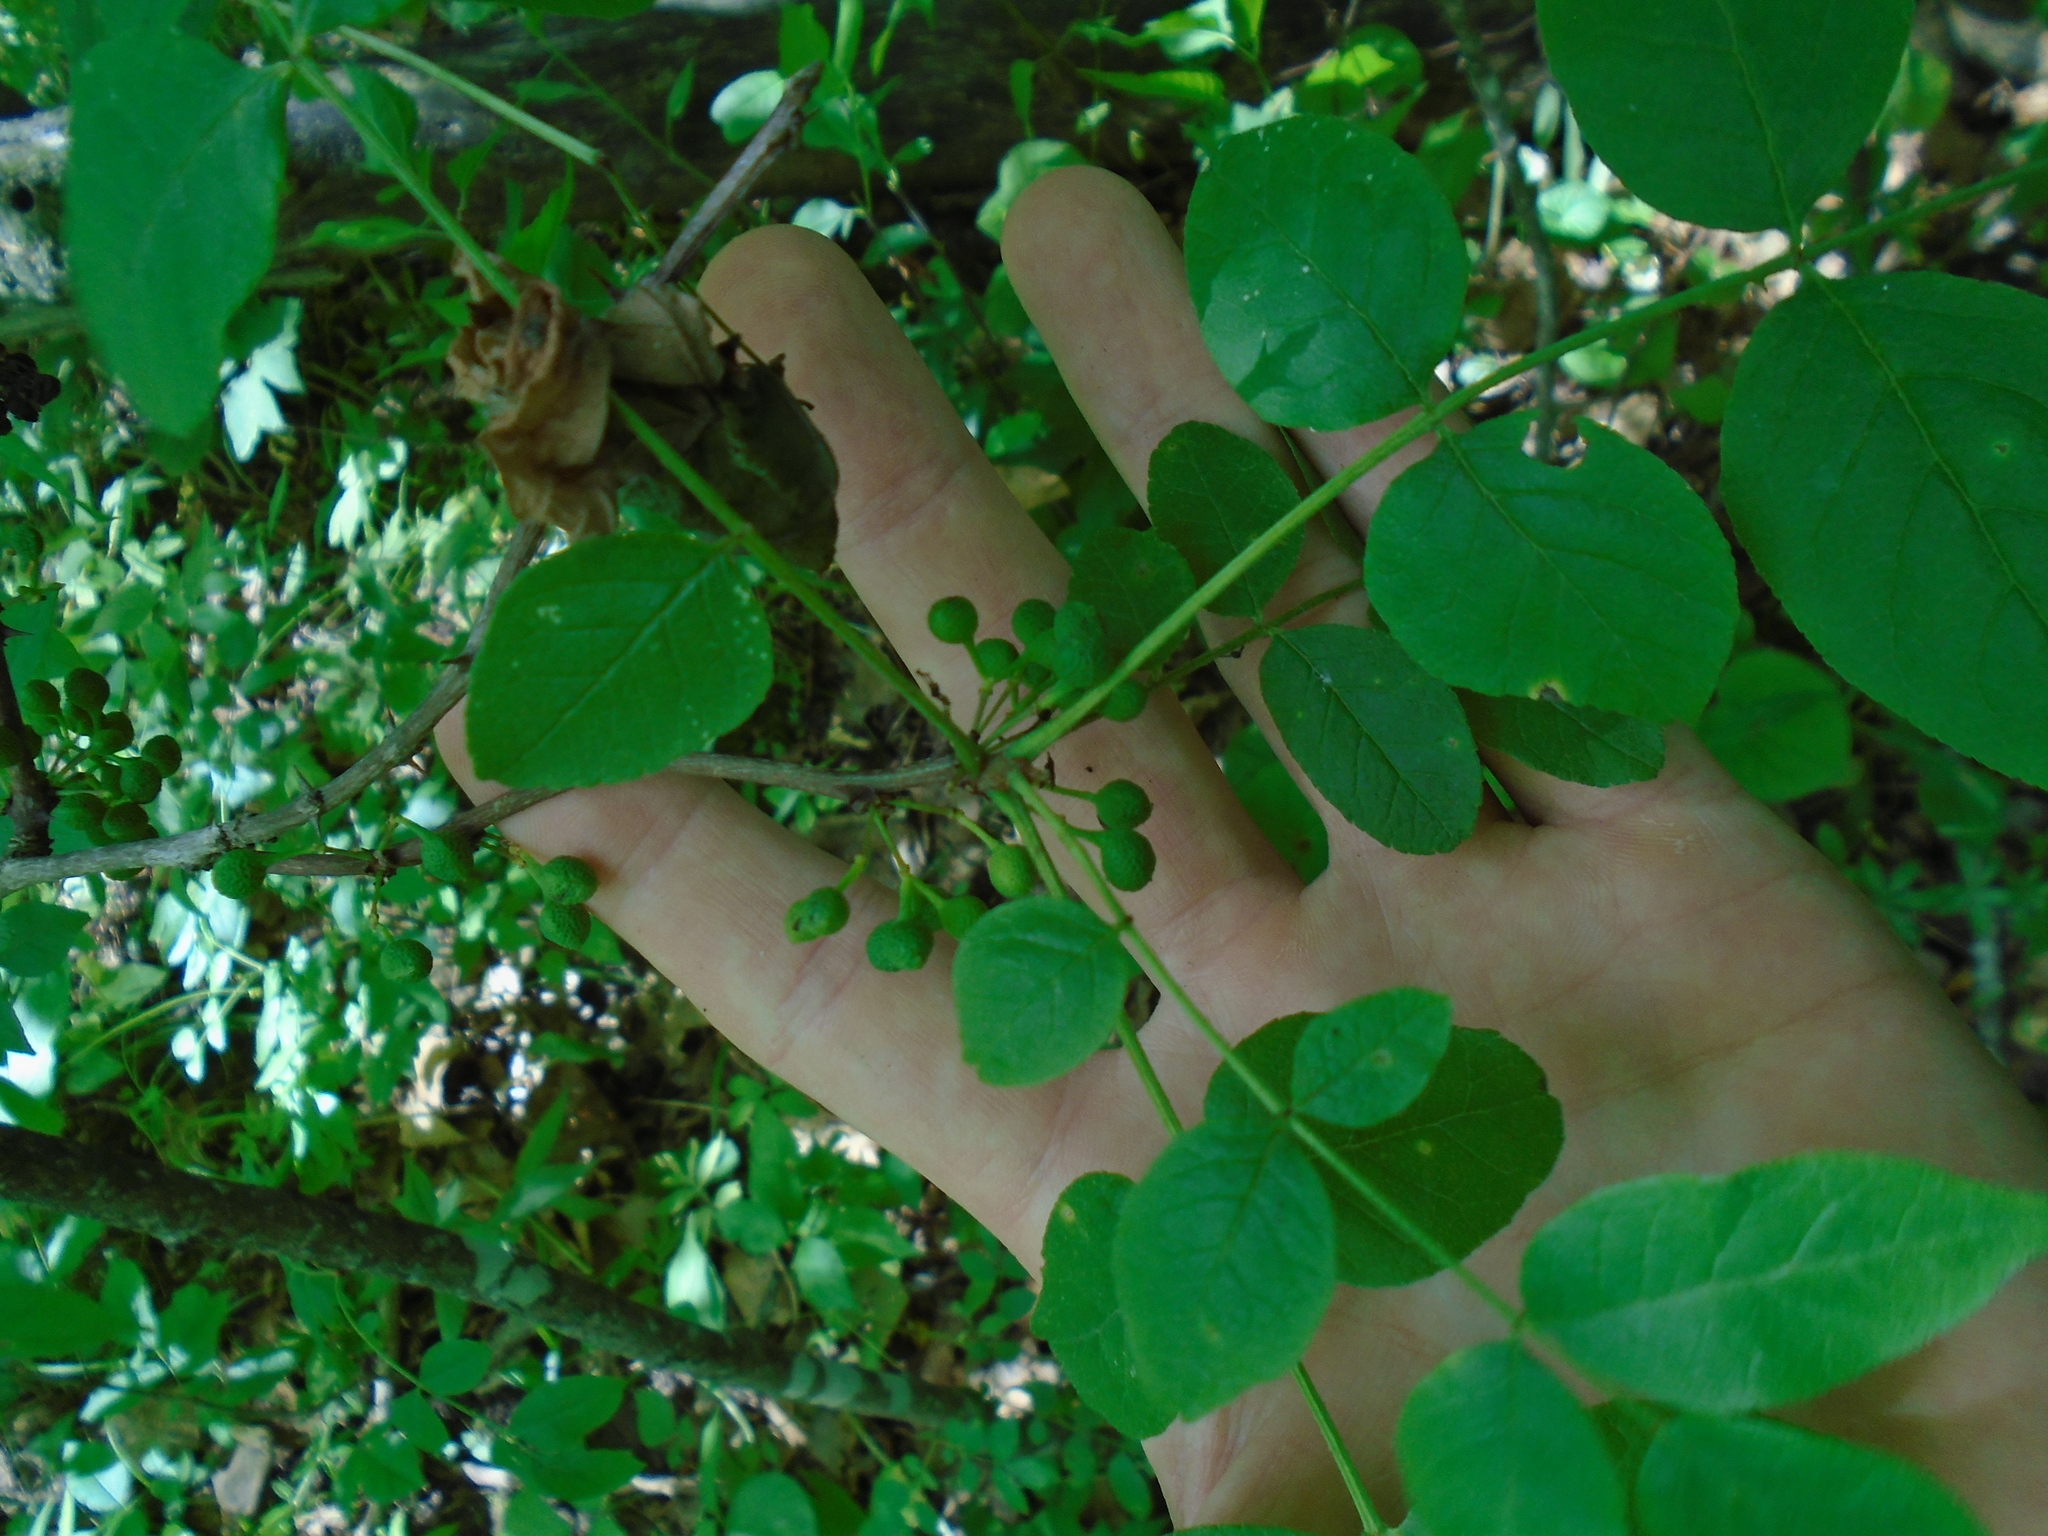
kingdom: Plantae
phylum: Tracheophyta
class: Magnoliopsida
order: Sapindales
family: Rutaceae
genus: Zanthoxylum
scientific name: Zanthoxylum americanum
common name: Northern prickly-ash
